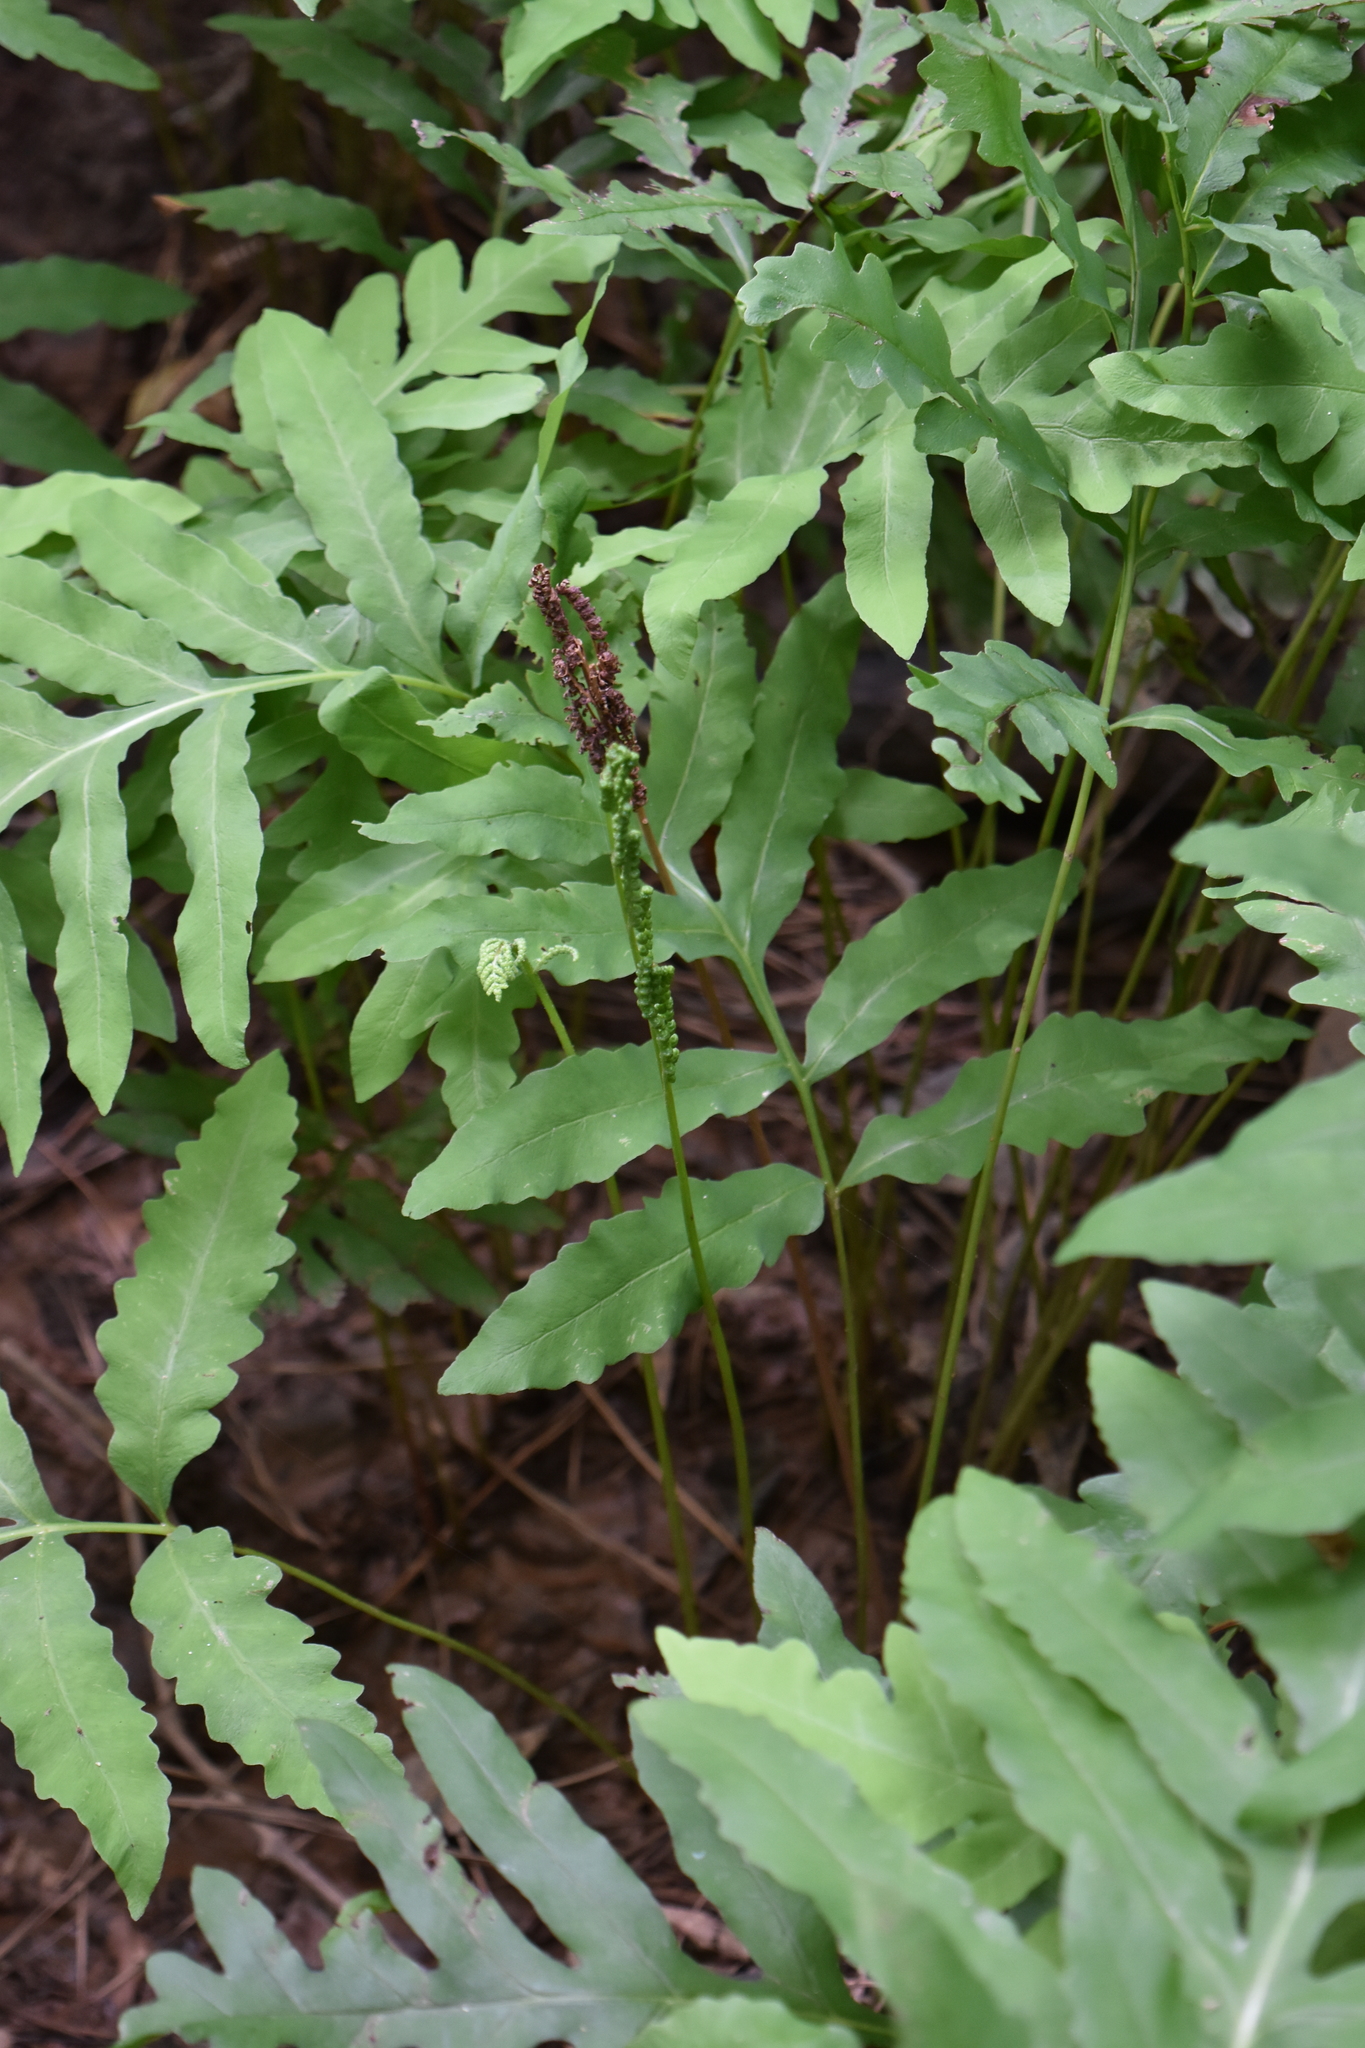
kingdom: Plantae
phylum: Tracheophyta
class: Polypodiopsida
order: Polypodiales
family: Onocleaceae
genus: Onoclea
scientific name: Onoclea sensibilis
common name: Sensitive fern
